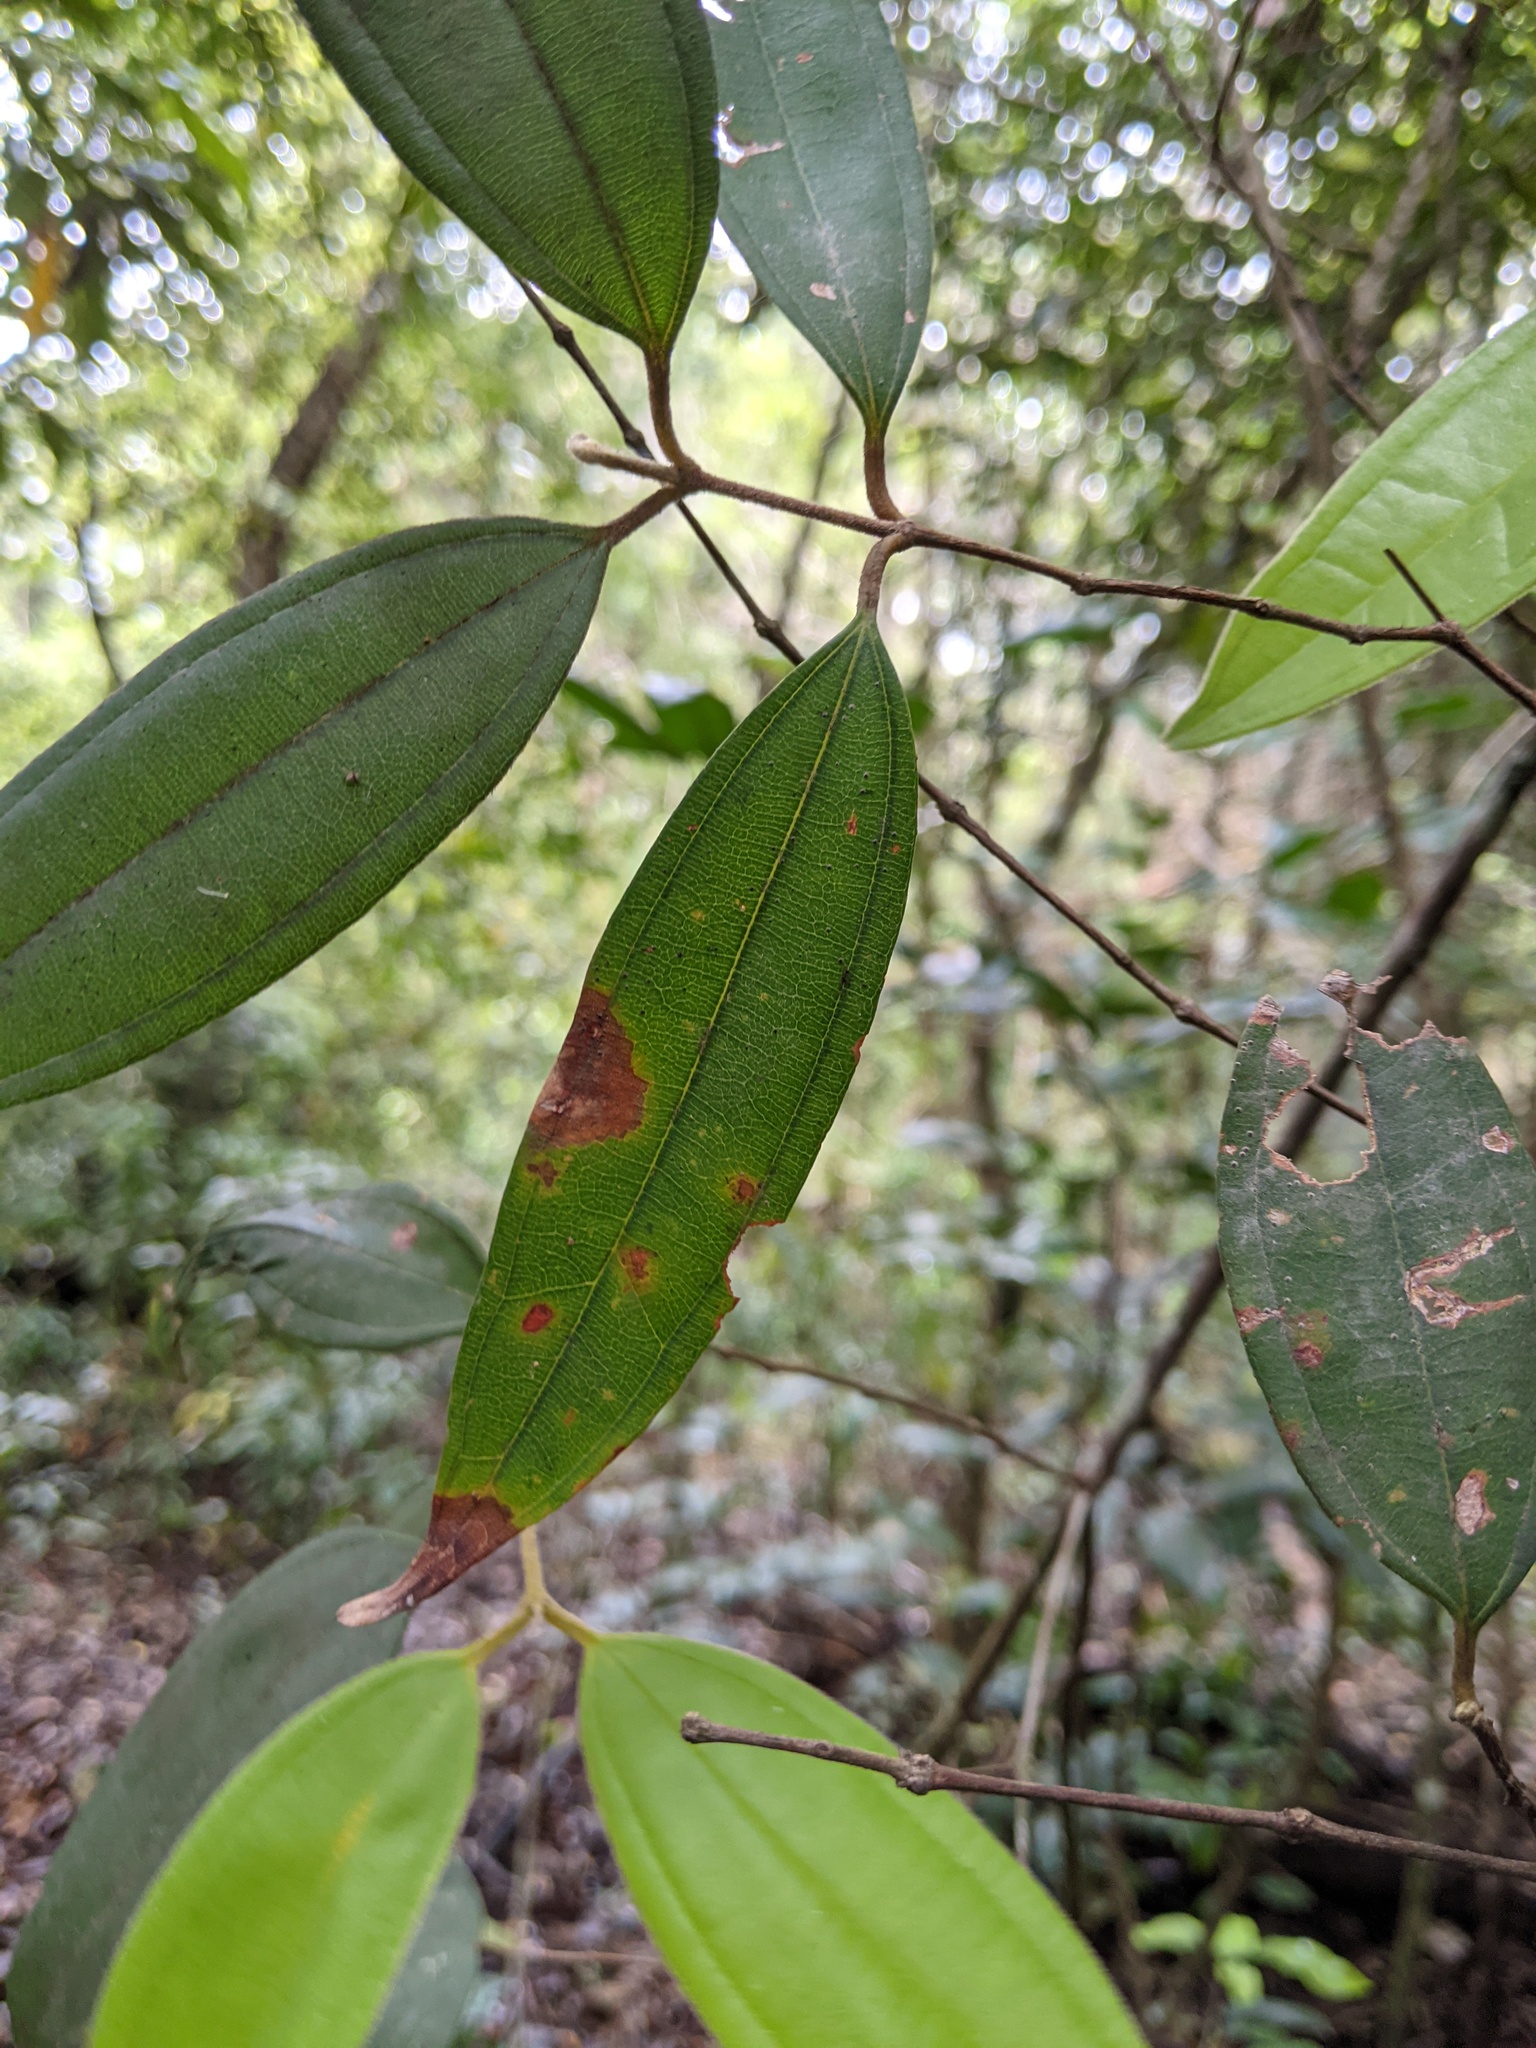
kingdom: Plantae
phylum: Tracheophyta
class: Magnoliopsida
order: Myrtales
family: Myrtaceae
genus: Rhodamnia
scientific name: Rhodamnia rubescens
